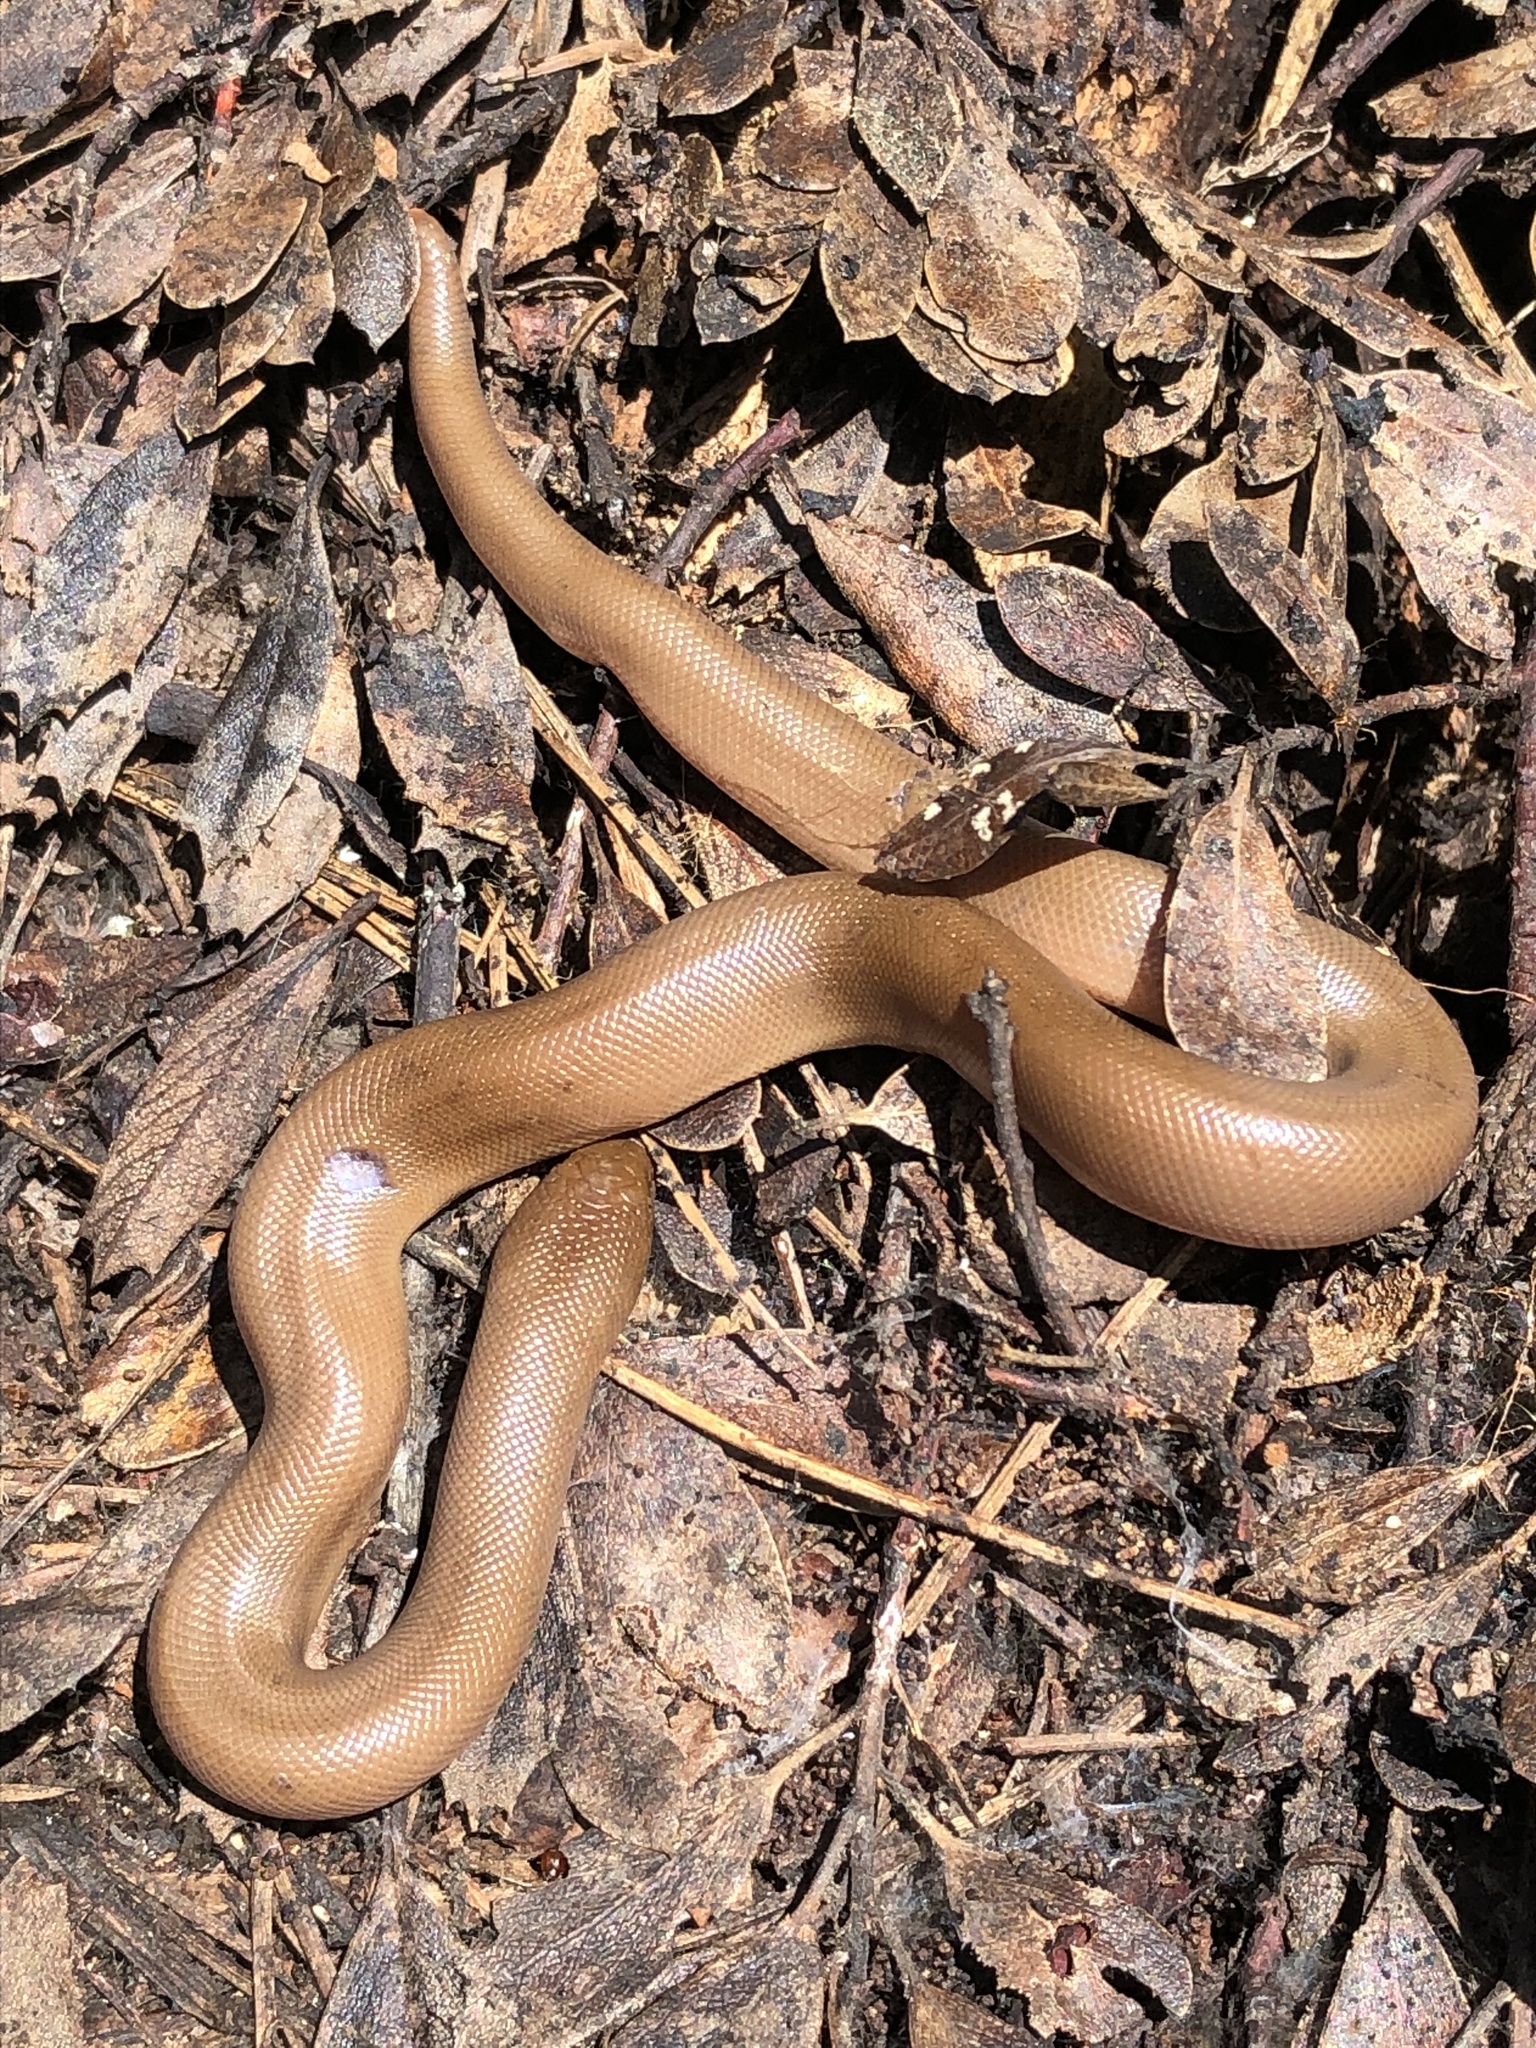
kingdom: Animalia
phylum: Chordata
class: Squamata
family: Boidae
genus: Charina
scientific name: Charina bottae
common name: Northern rubber boa
